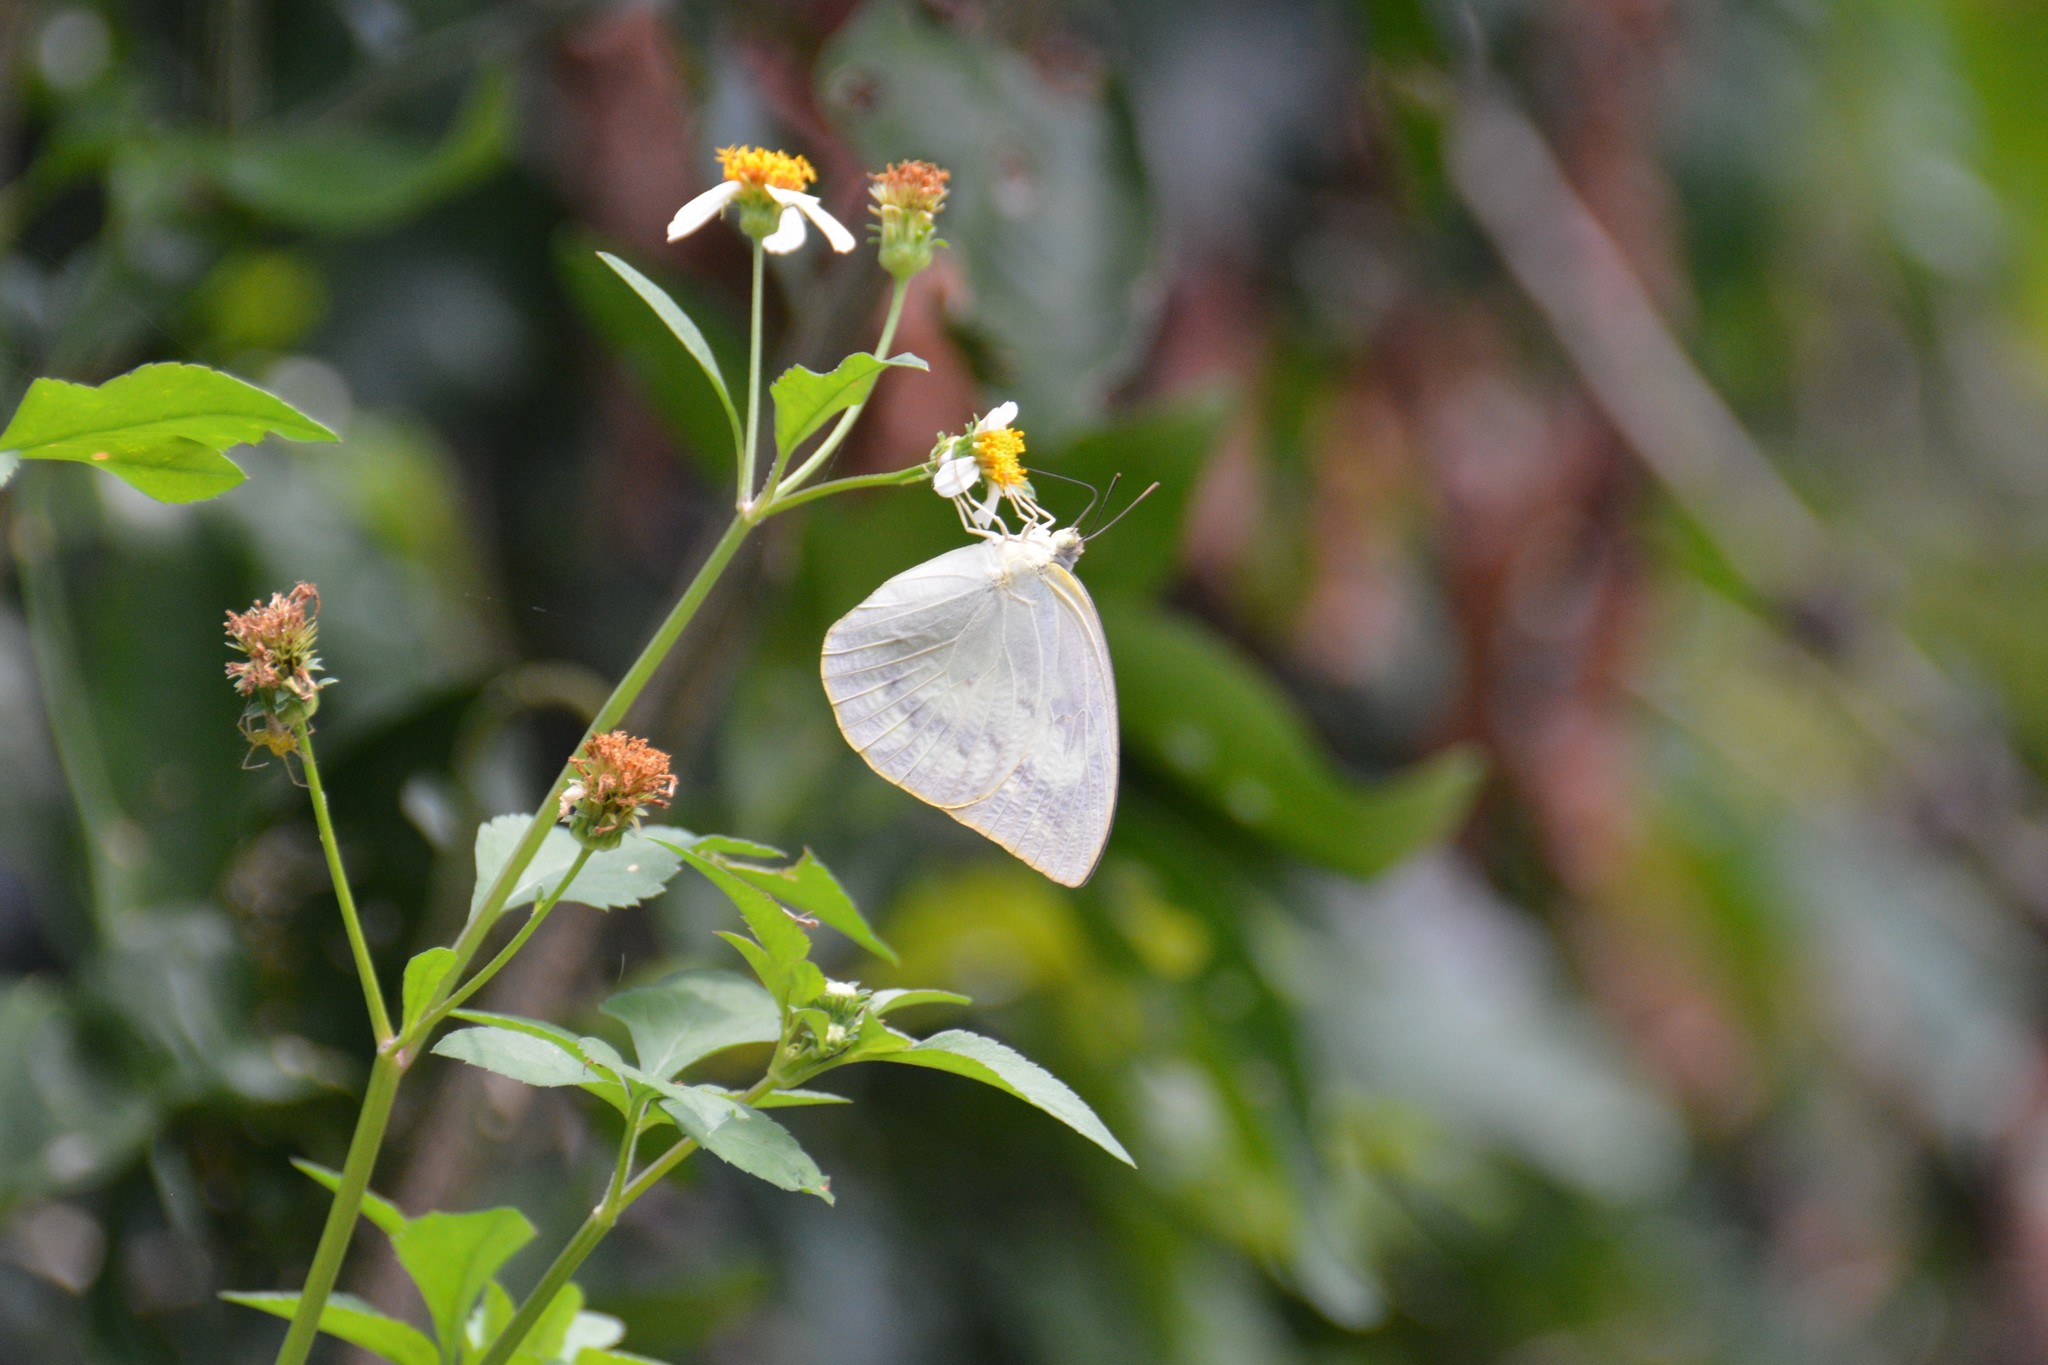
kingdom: Animalia
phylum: Arthropoda
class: Insecta
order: Lepidoptera
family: Pieridae
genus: Catopsilia
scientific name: Catopsilia pomona
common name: Common emigrant
